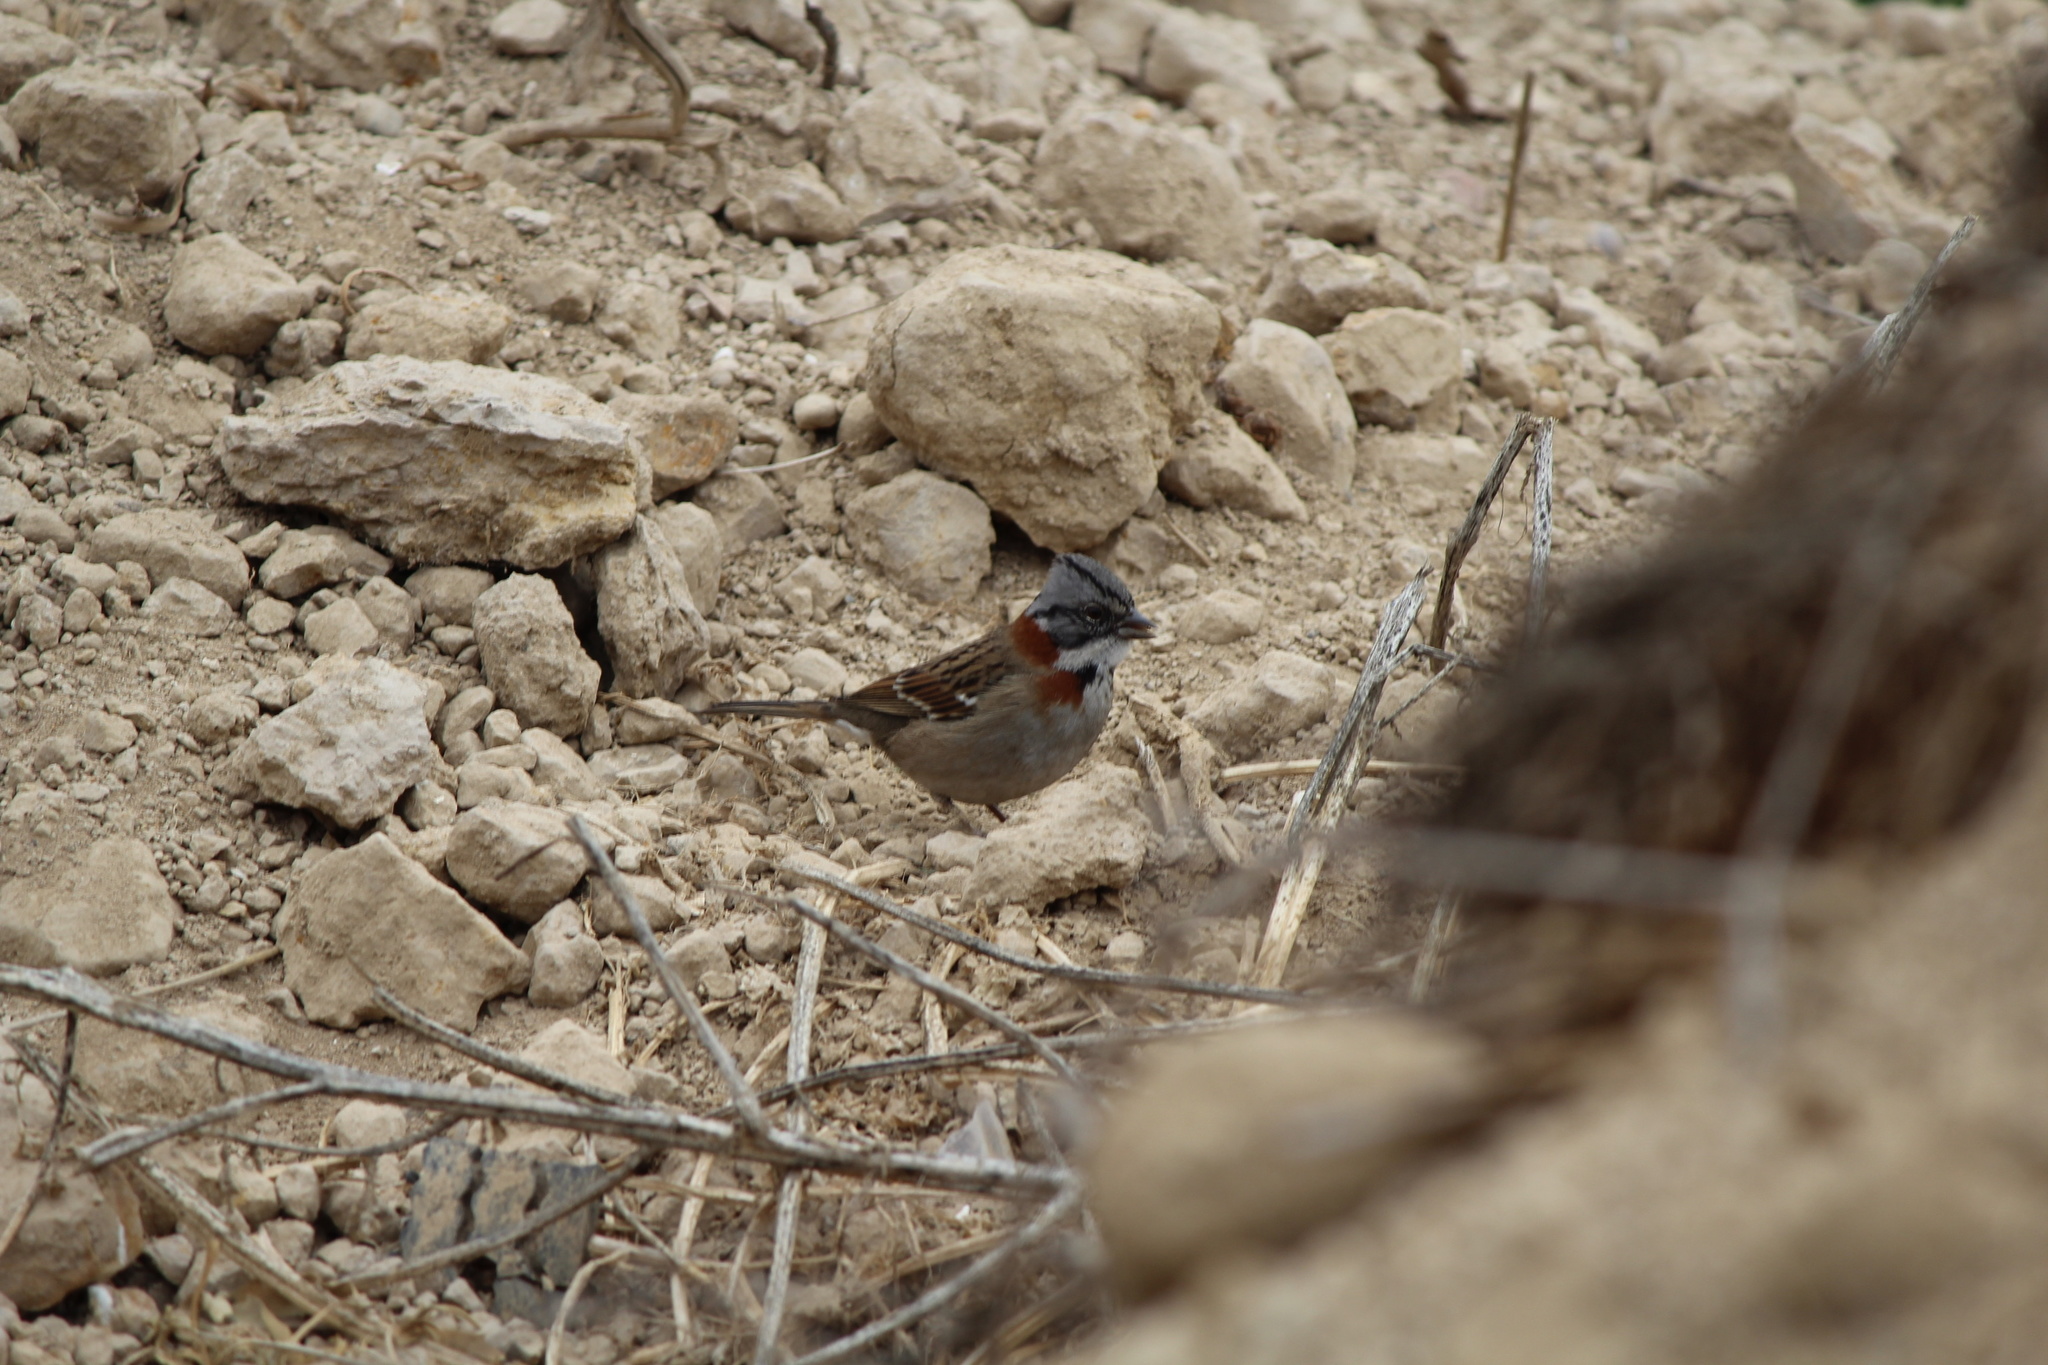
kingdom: Animalia
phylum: Chordata
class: Aves
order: Passeriformes
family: Passerellidae
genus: Zonotrichia
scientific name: Zonotrichia capensis
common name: Rufous-collared sparrow
